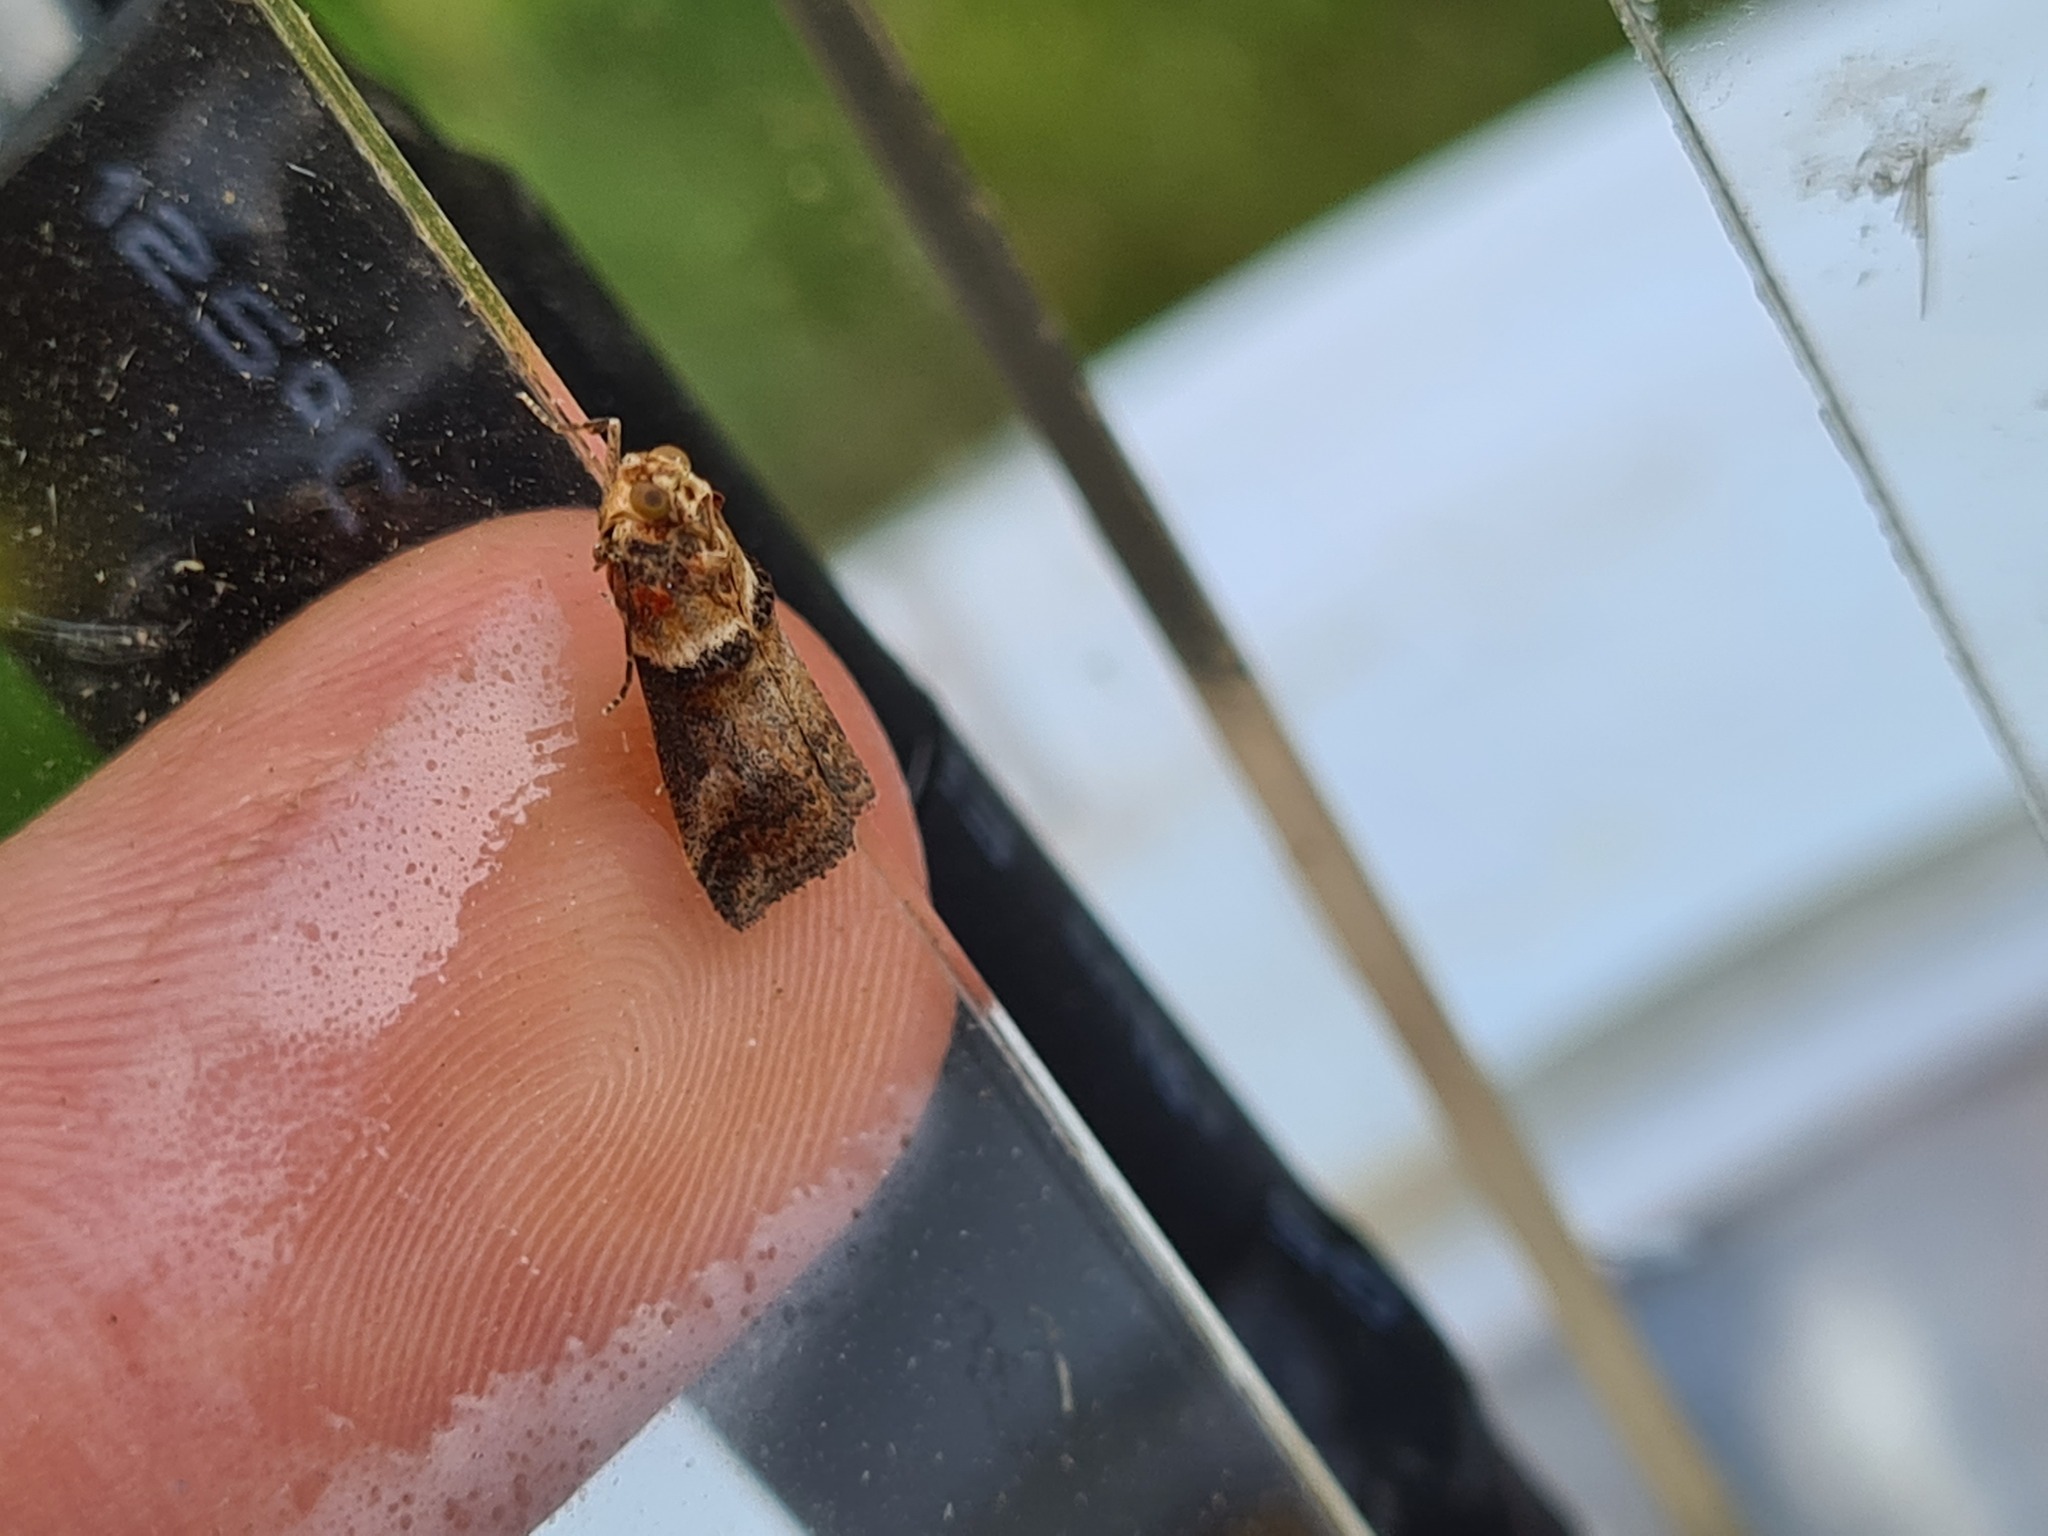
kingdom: Animalia
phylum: Arthropoda
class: Insecta
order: Lepidoptera
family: Pyralidae
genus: Acrobasis
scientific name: Acrobasis tumidana
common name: Scarce oak knot-horn
